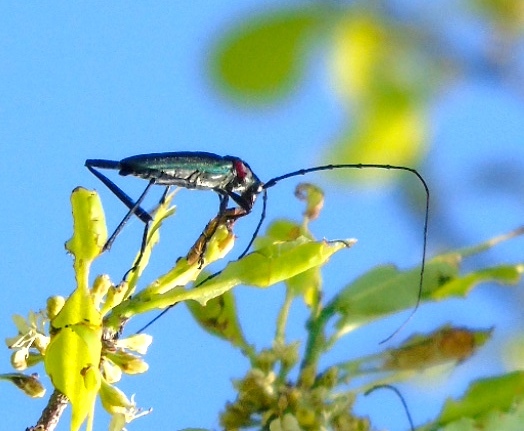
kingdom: Animalia
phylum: Arthropoda
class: Insecta
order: Coleoptera
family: Cerambycidae
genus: Pseudodeltaspis
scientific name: Pseudodeltaspis cyanea
